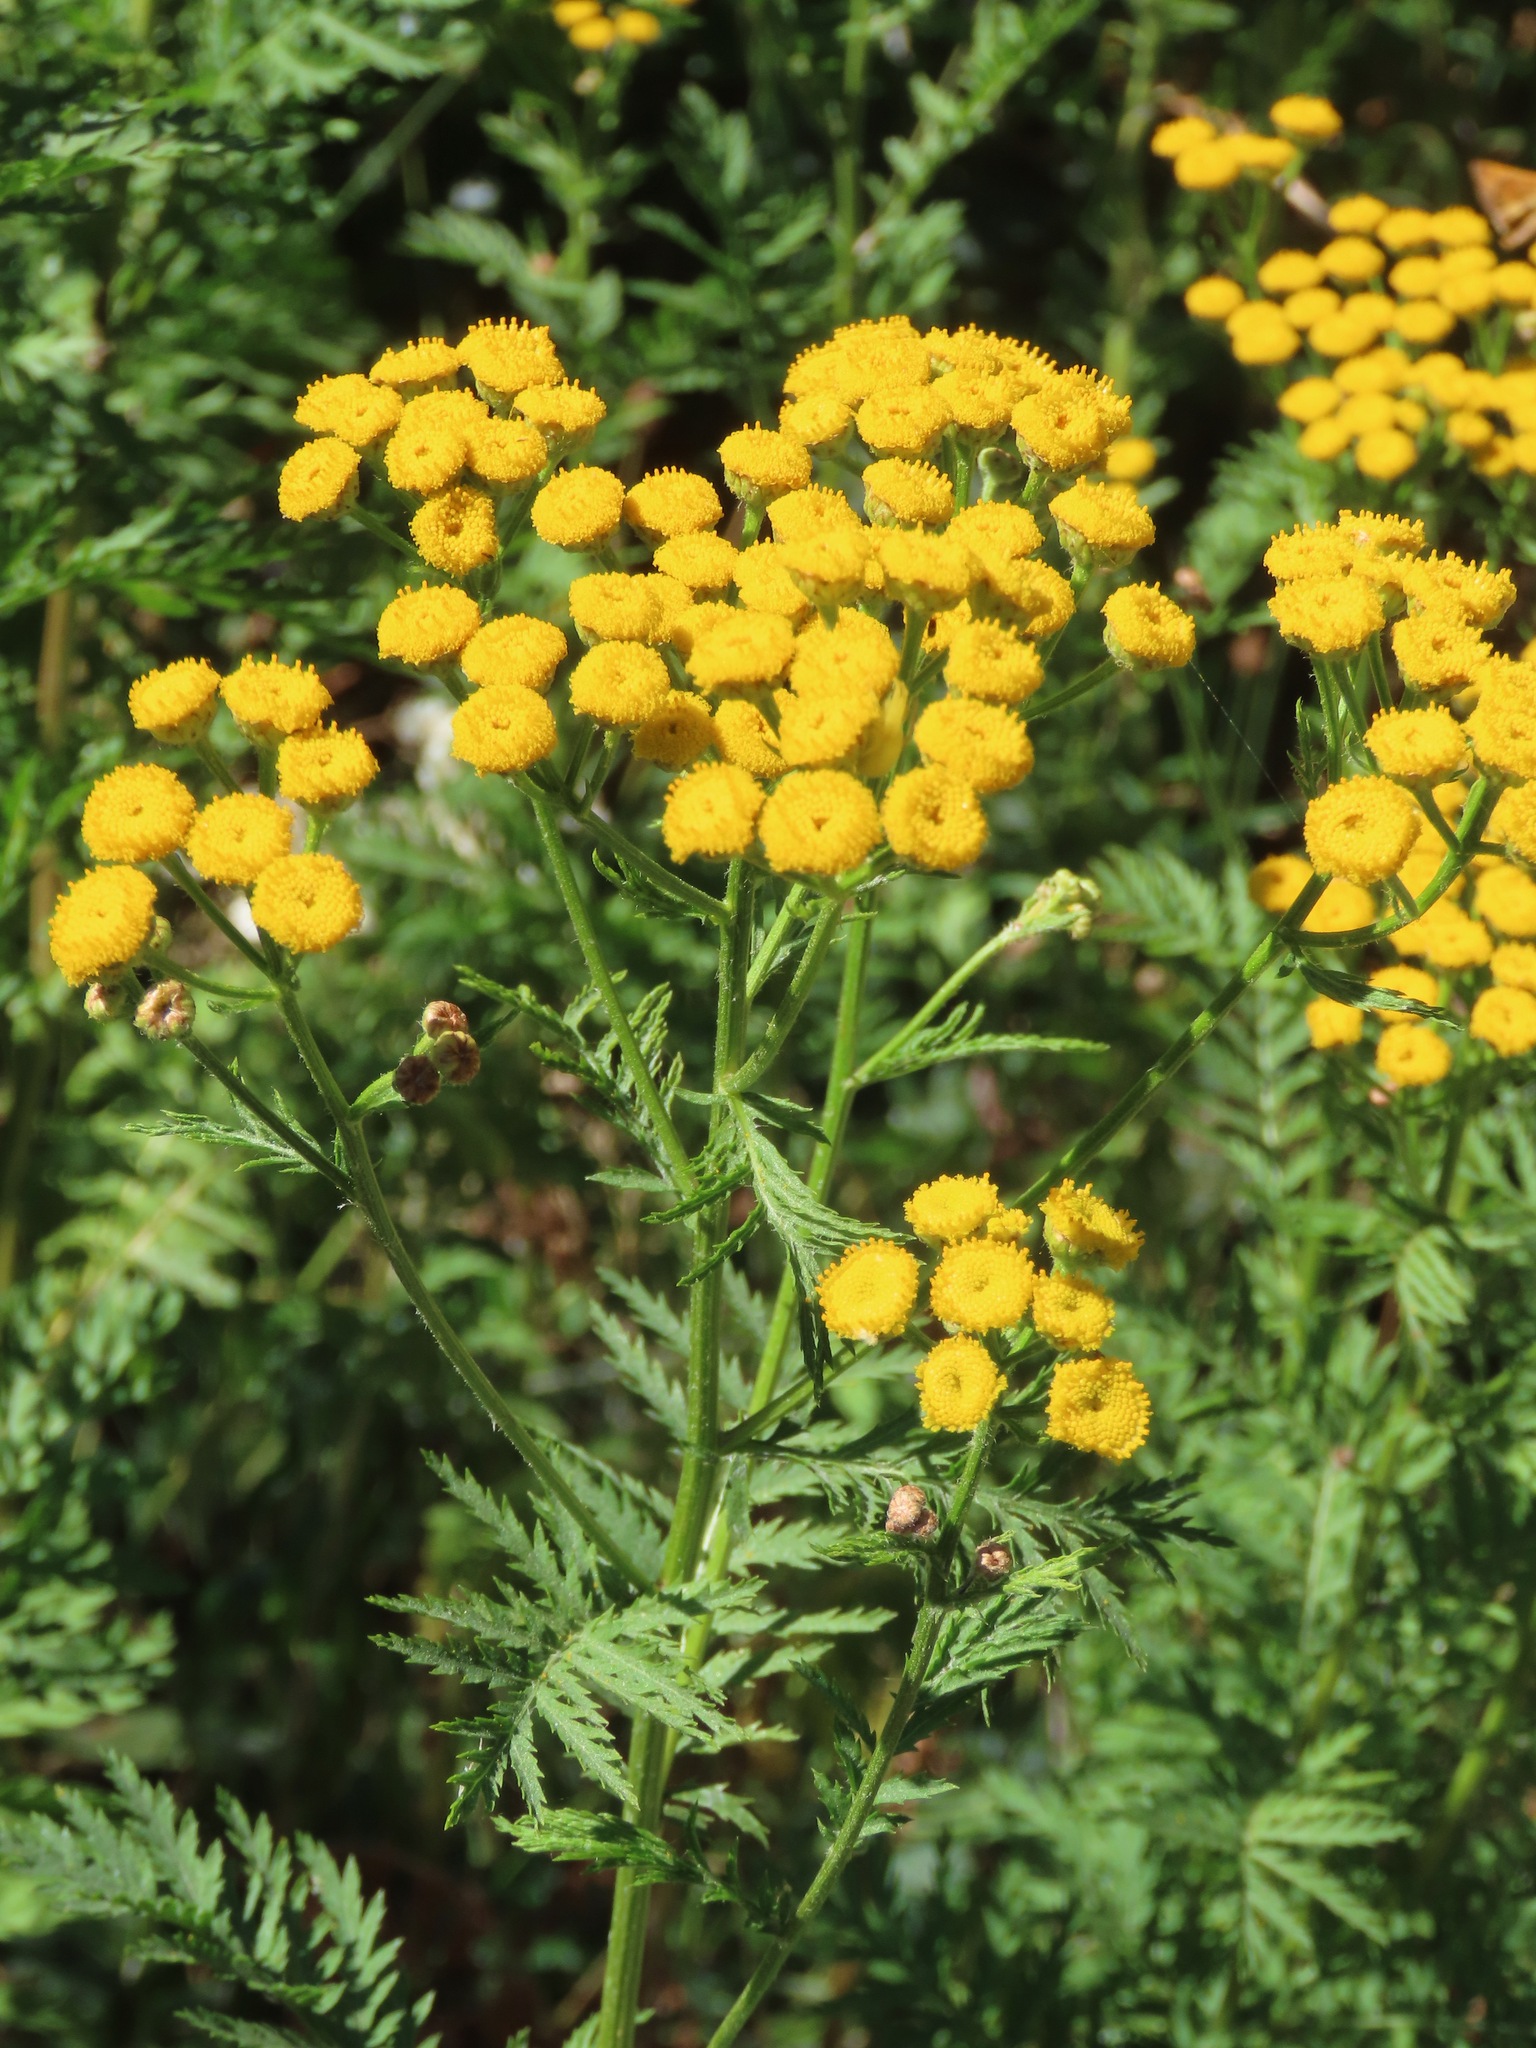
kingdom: Plantae
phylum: Tracheophyta
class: Magnoliopsida
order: Asterales
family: Asteraceae
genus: Tanacetum
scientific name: Tanacetum vulgare
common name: Common tansy
